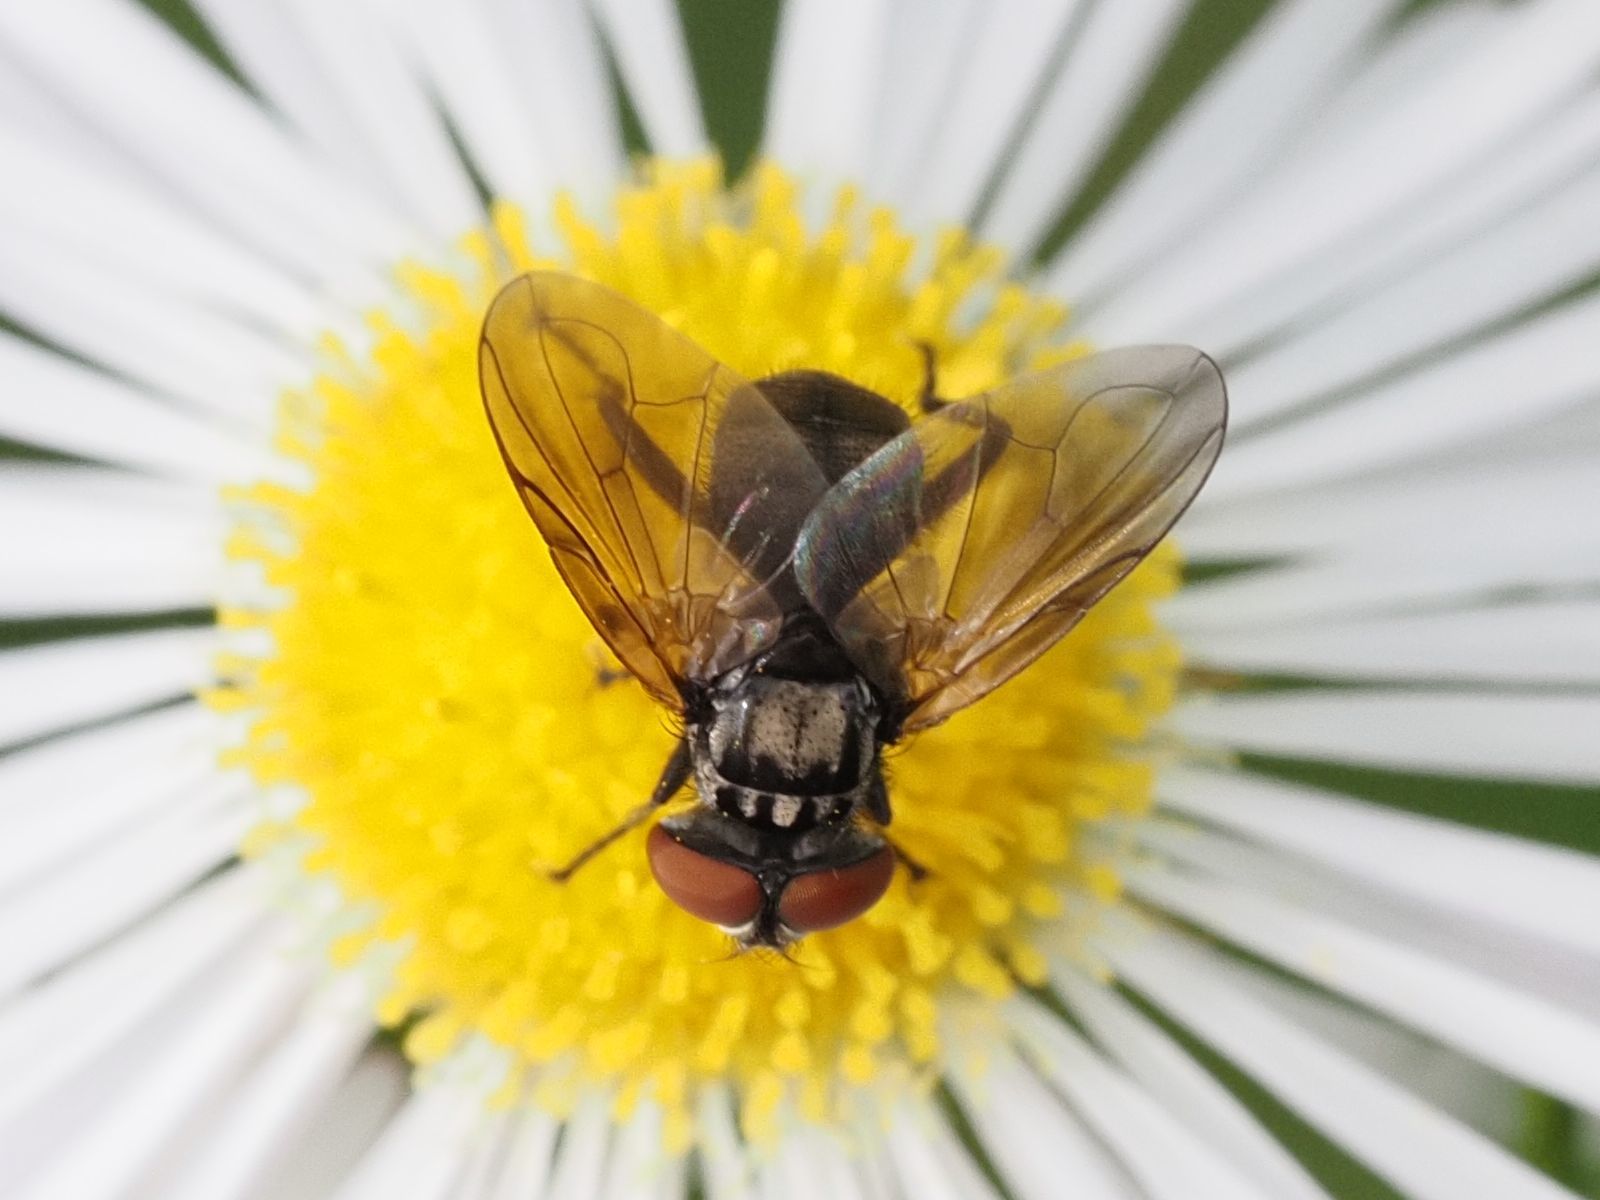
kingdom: Animalia
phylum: Arthropoda
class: Insecta
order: Diptera
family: Tachinidae
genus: Phasia
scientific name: Phasia obesa
